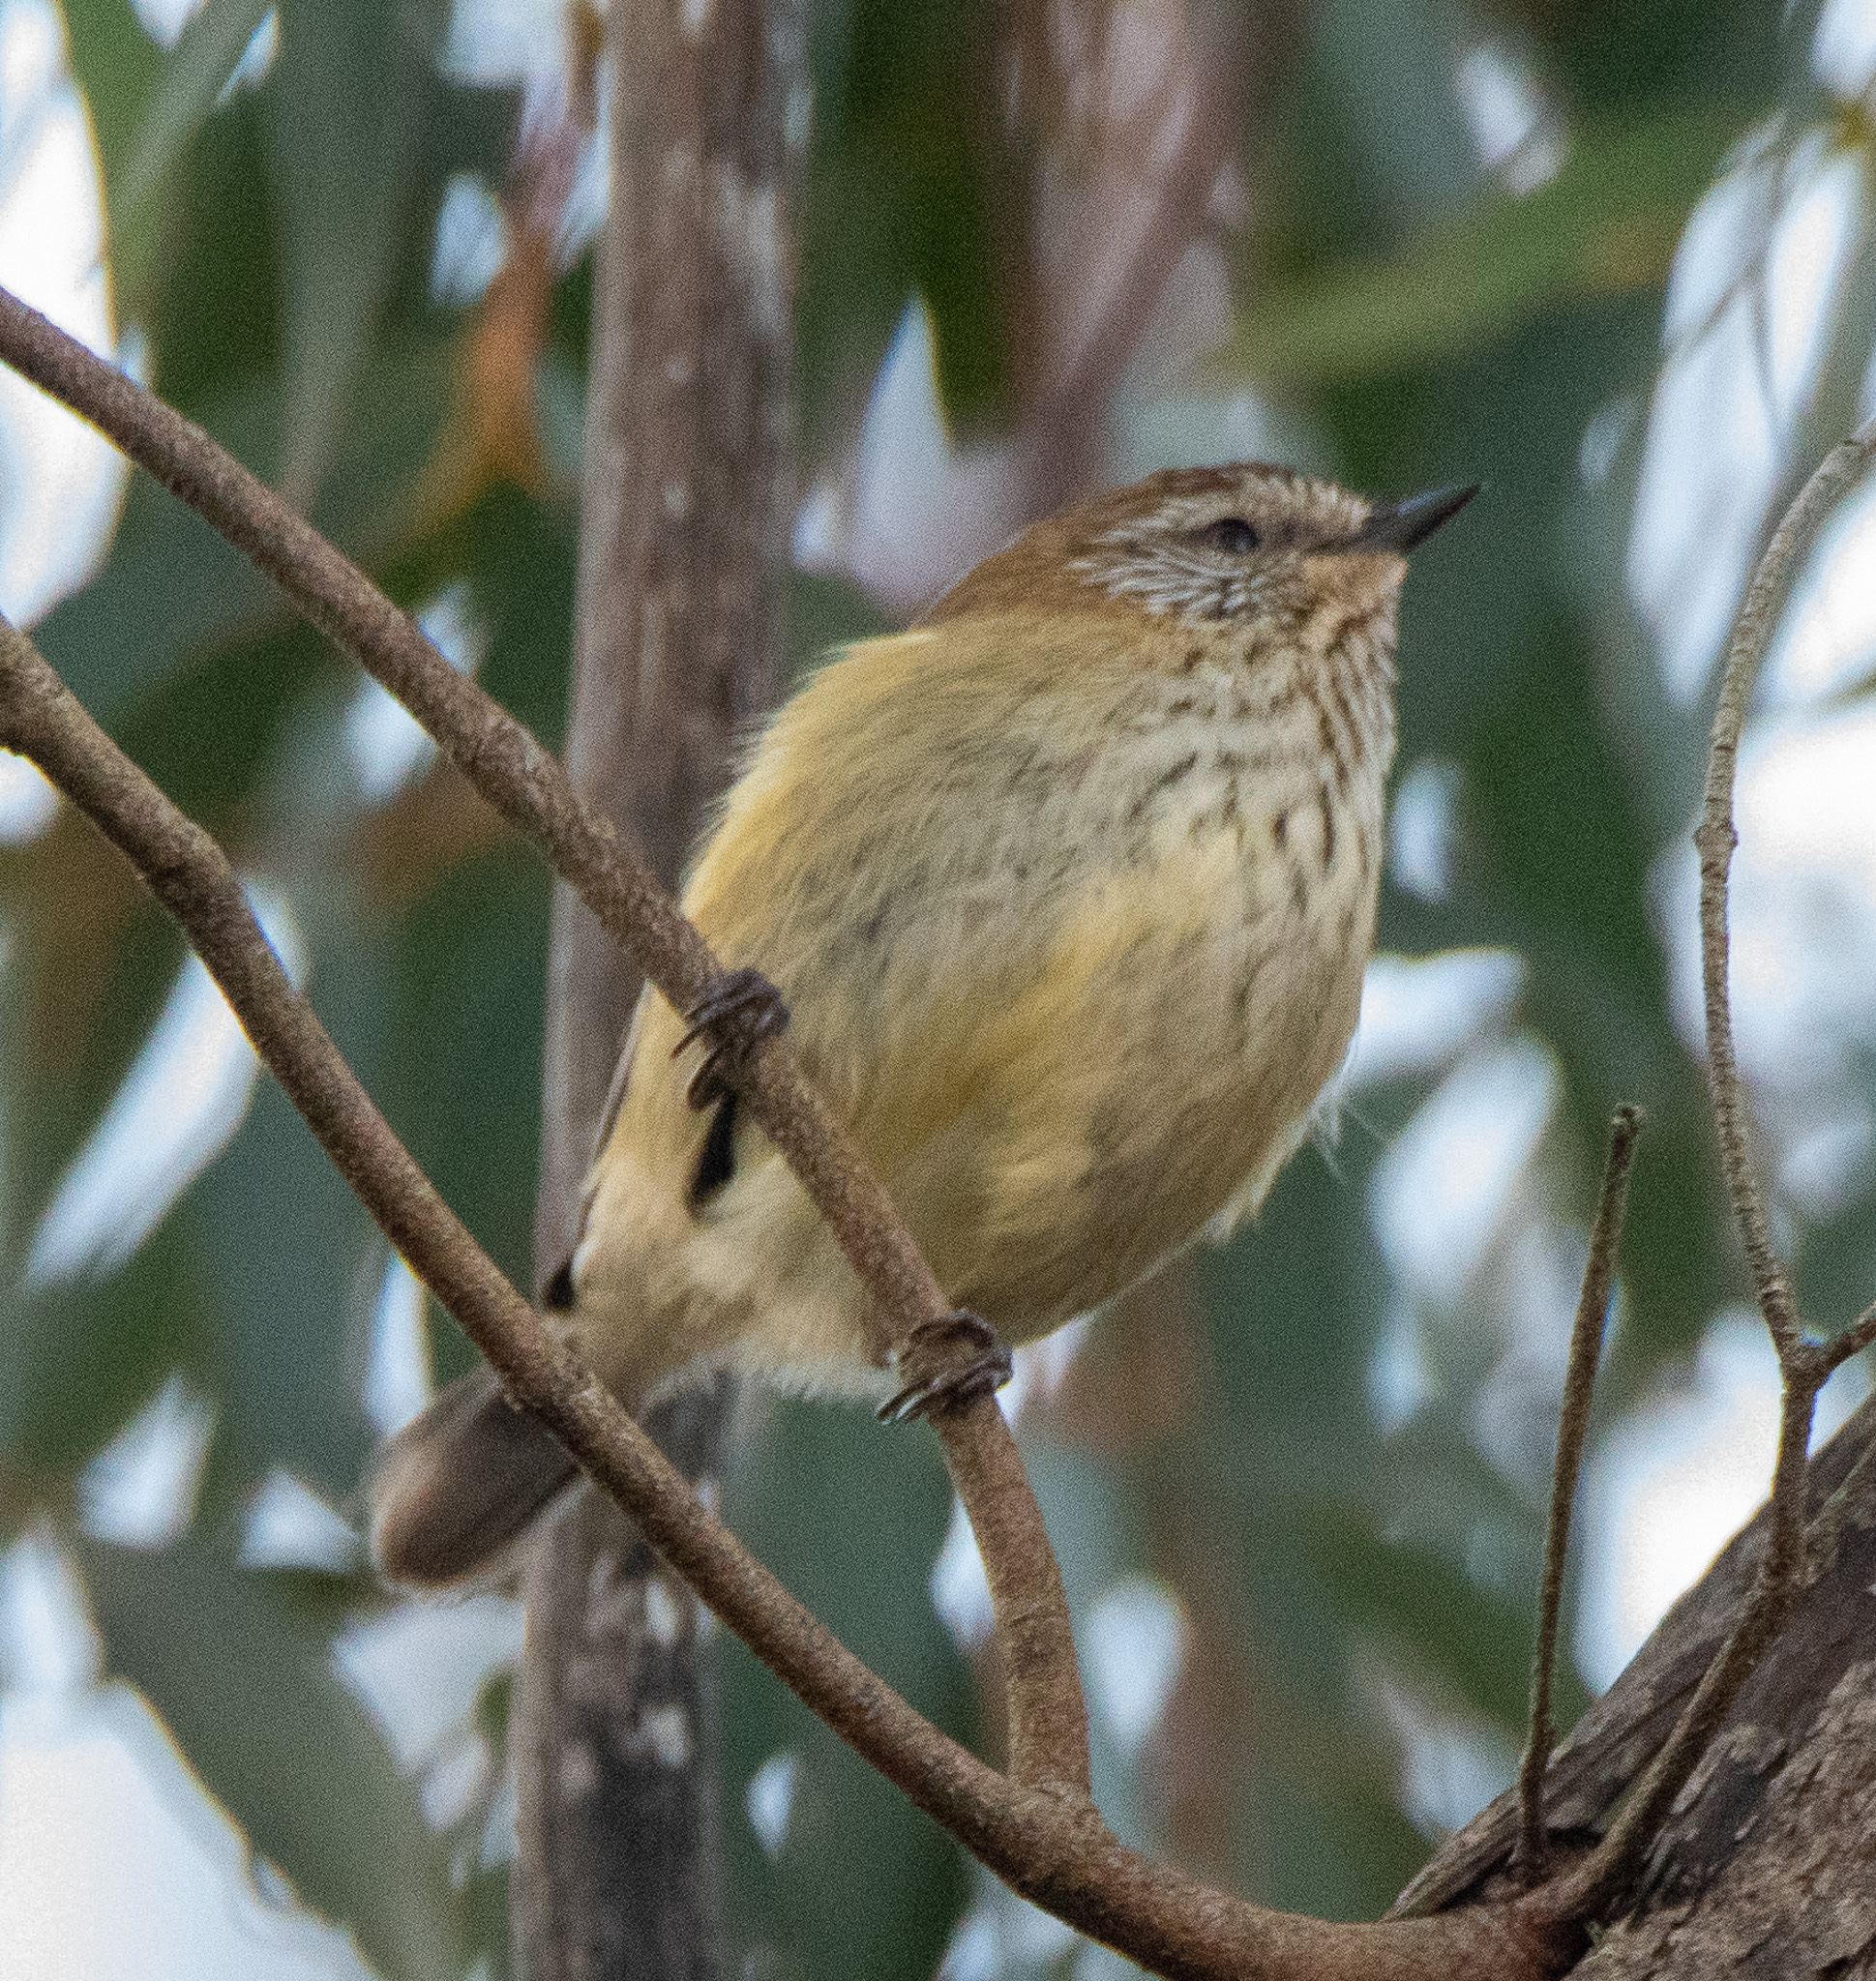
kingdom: Animalia
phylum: Chordata
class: Aves
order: Passeriformes
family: Acanthizidae
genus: Acanthiza
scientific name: Acanthiza lineata
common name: Striated thornbill
